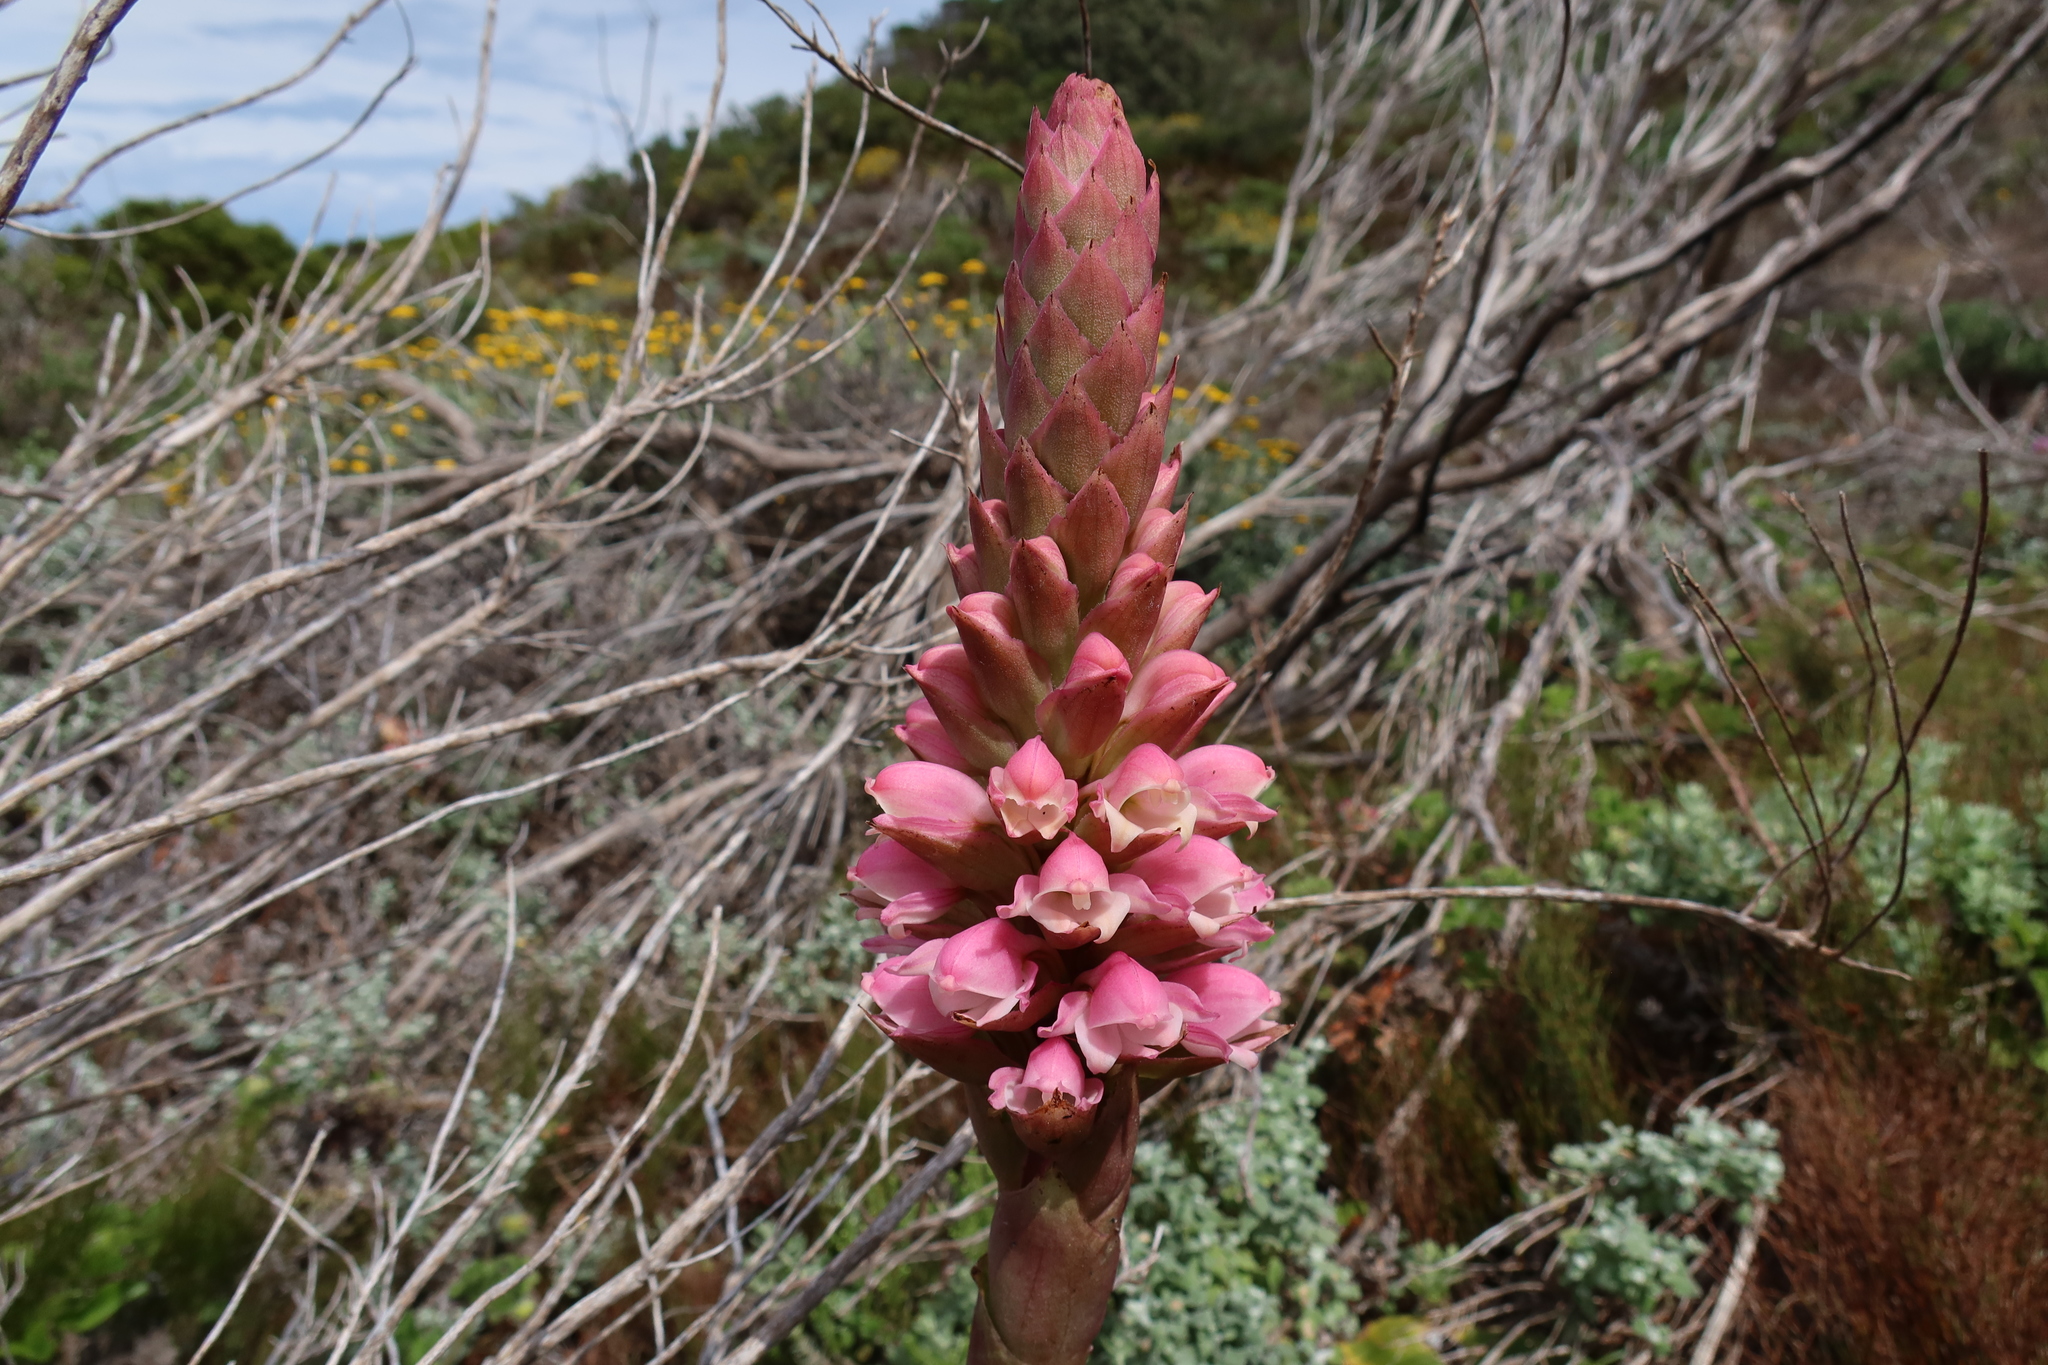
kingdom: Plantae
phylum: Tracheophyta
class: Liliopsida
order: Asparagales
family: Orchidaceae
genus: Satyrium
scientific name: Satyrium carneum
